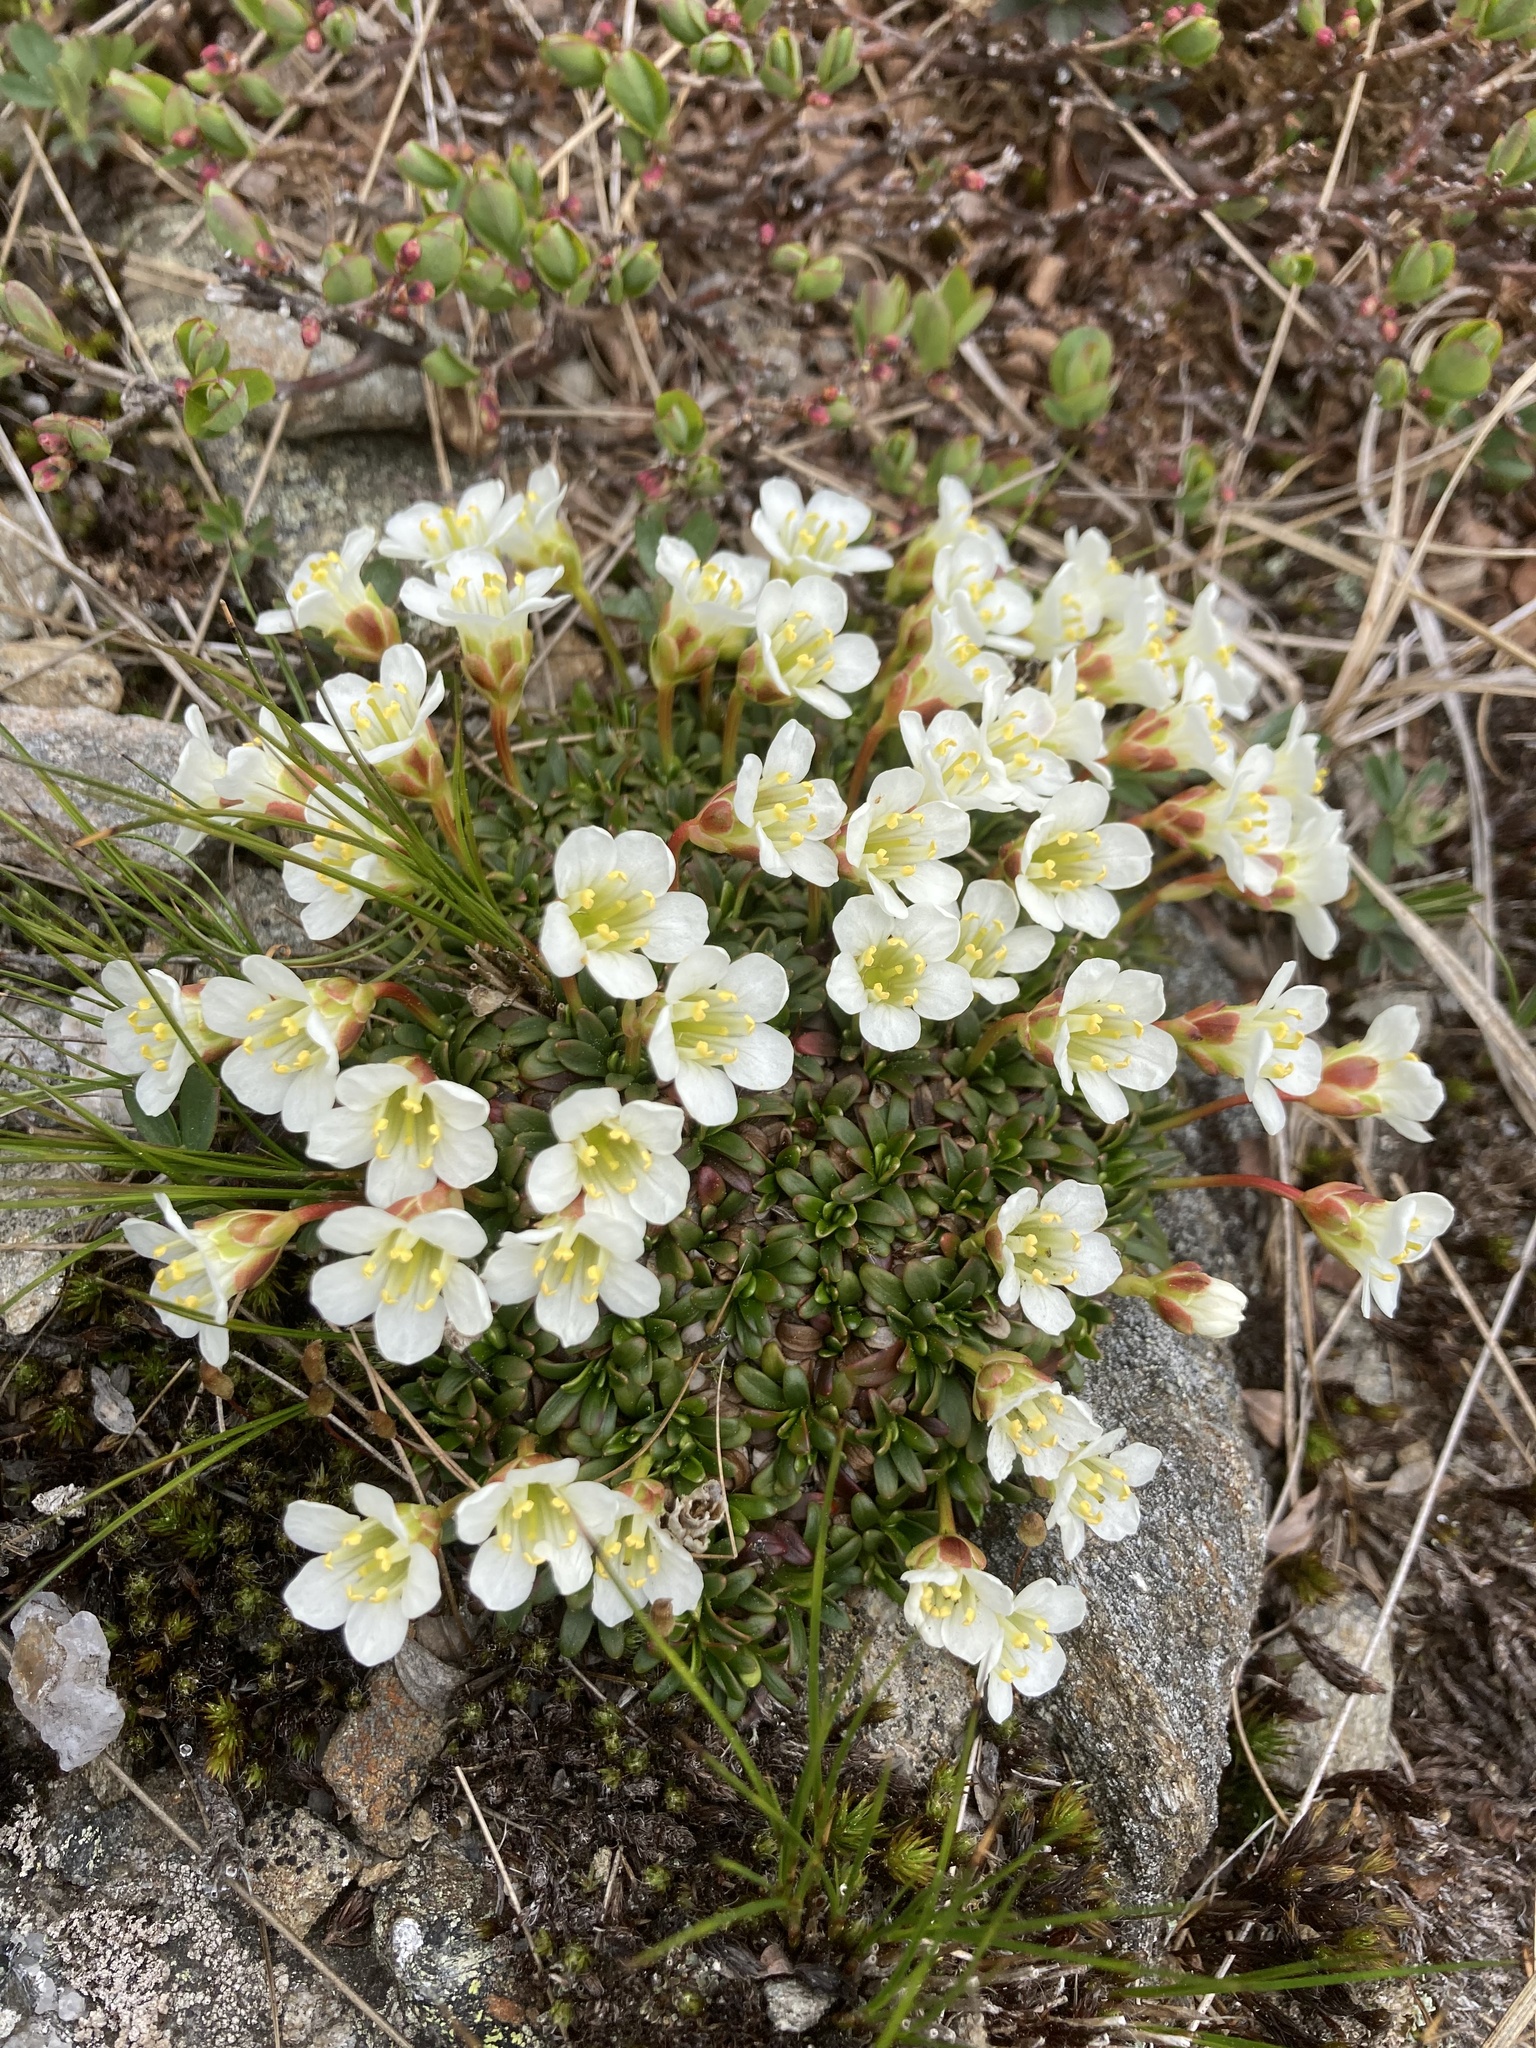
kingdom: Plantae
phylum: Tracheophyta
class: Magnoliopsida
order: Ericales
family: Diapensiaceae
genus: Diapensia
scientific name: Diapensia lapponica
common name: Diapensia
